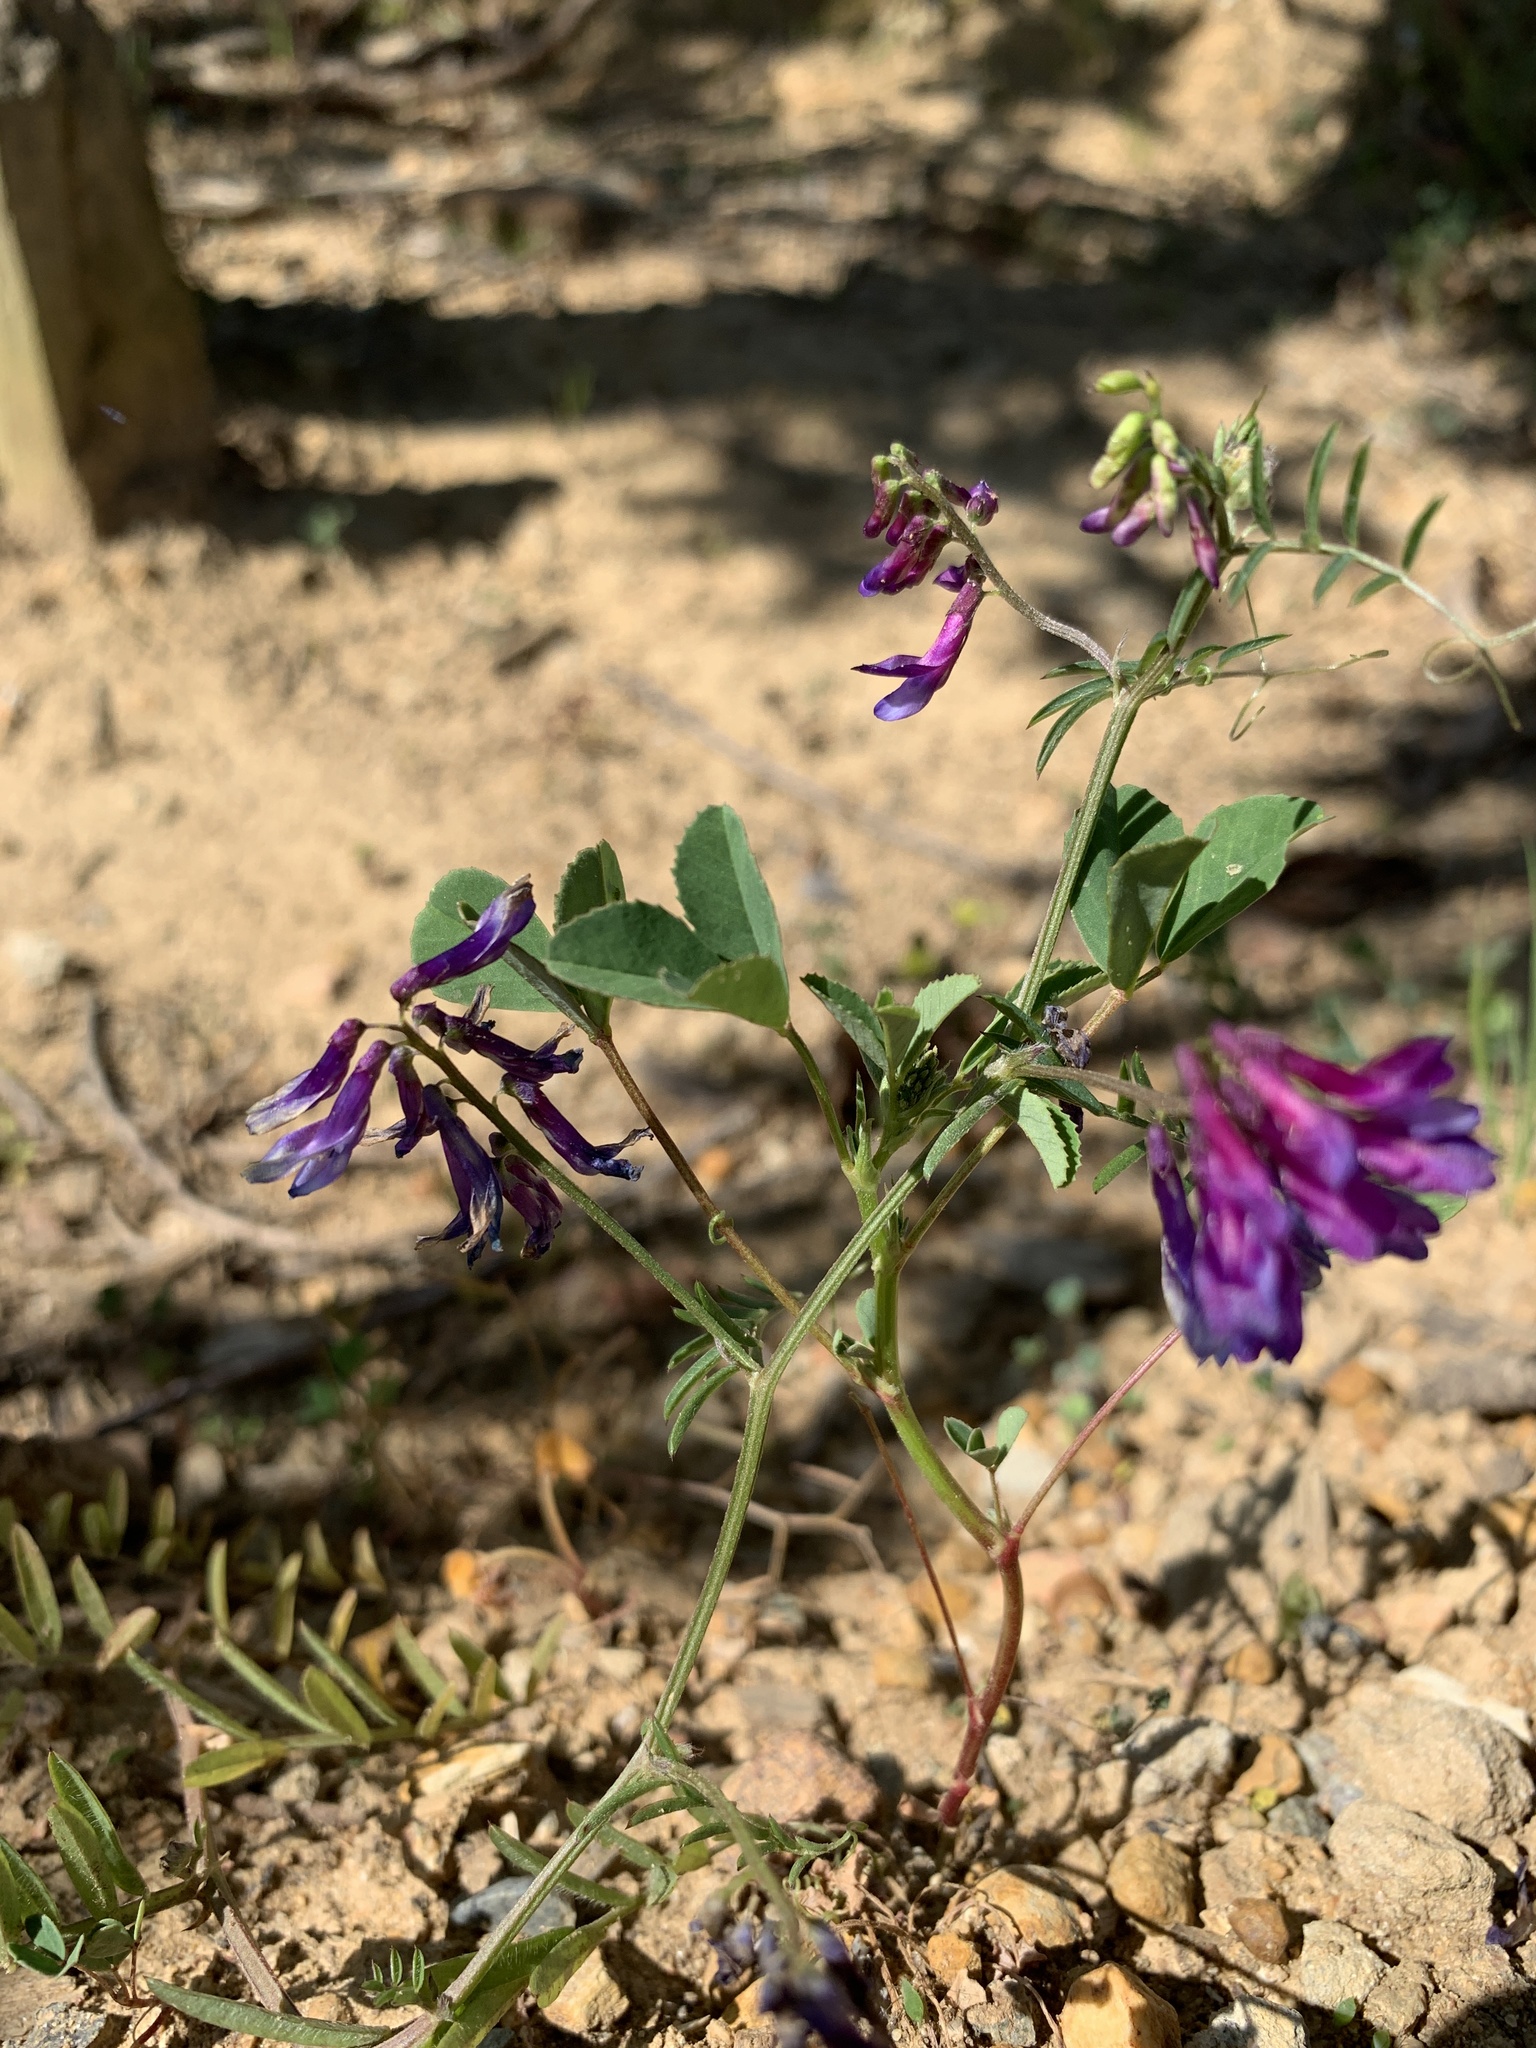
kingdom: Plantae
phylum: Tracheophyta
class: Magnoliopsida
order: Fabales
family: Fabaceae
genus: Vicia
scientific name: Vicia eriocarpa
